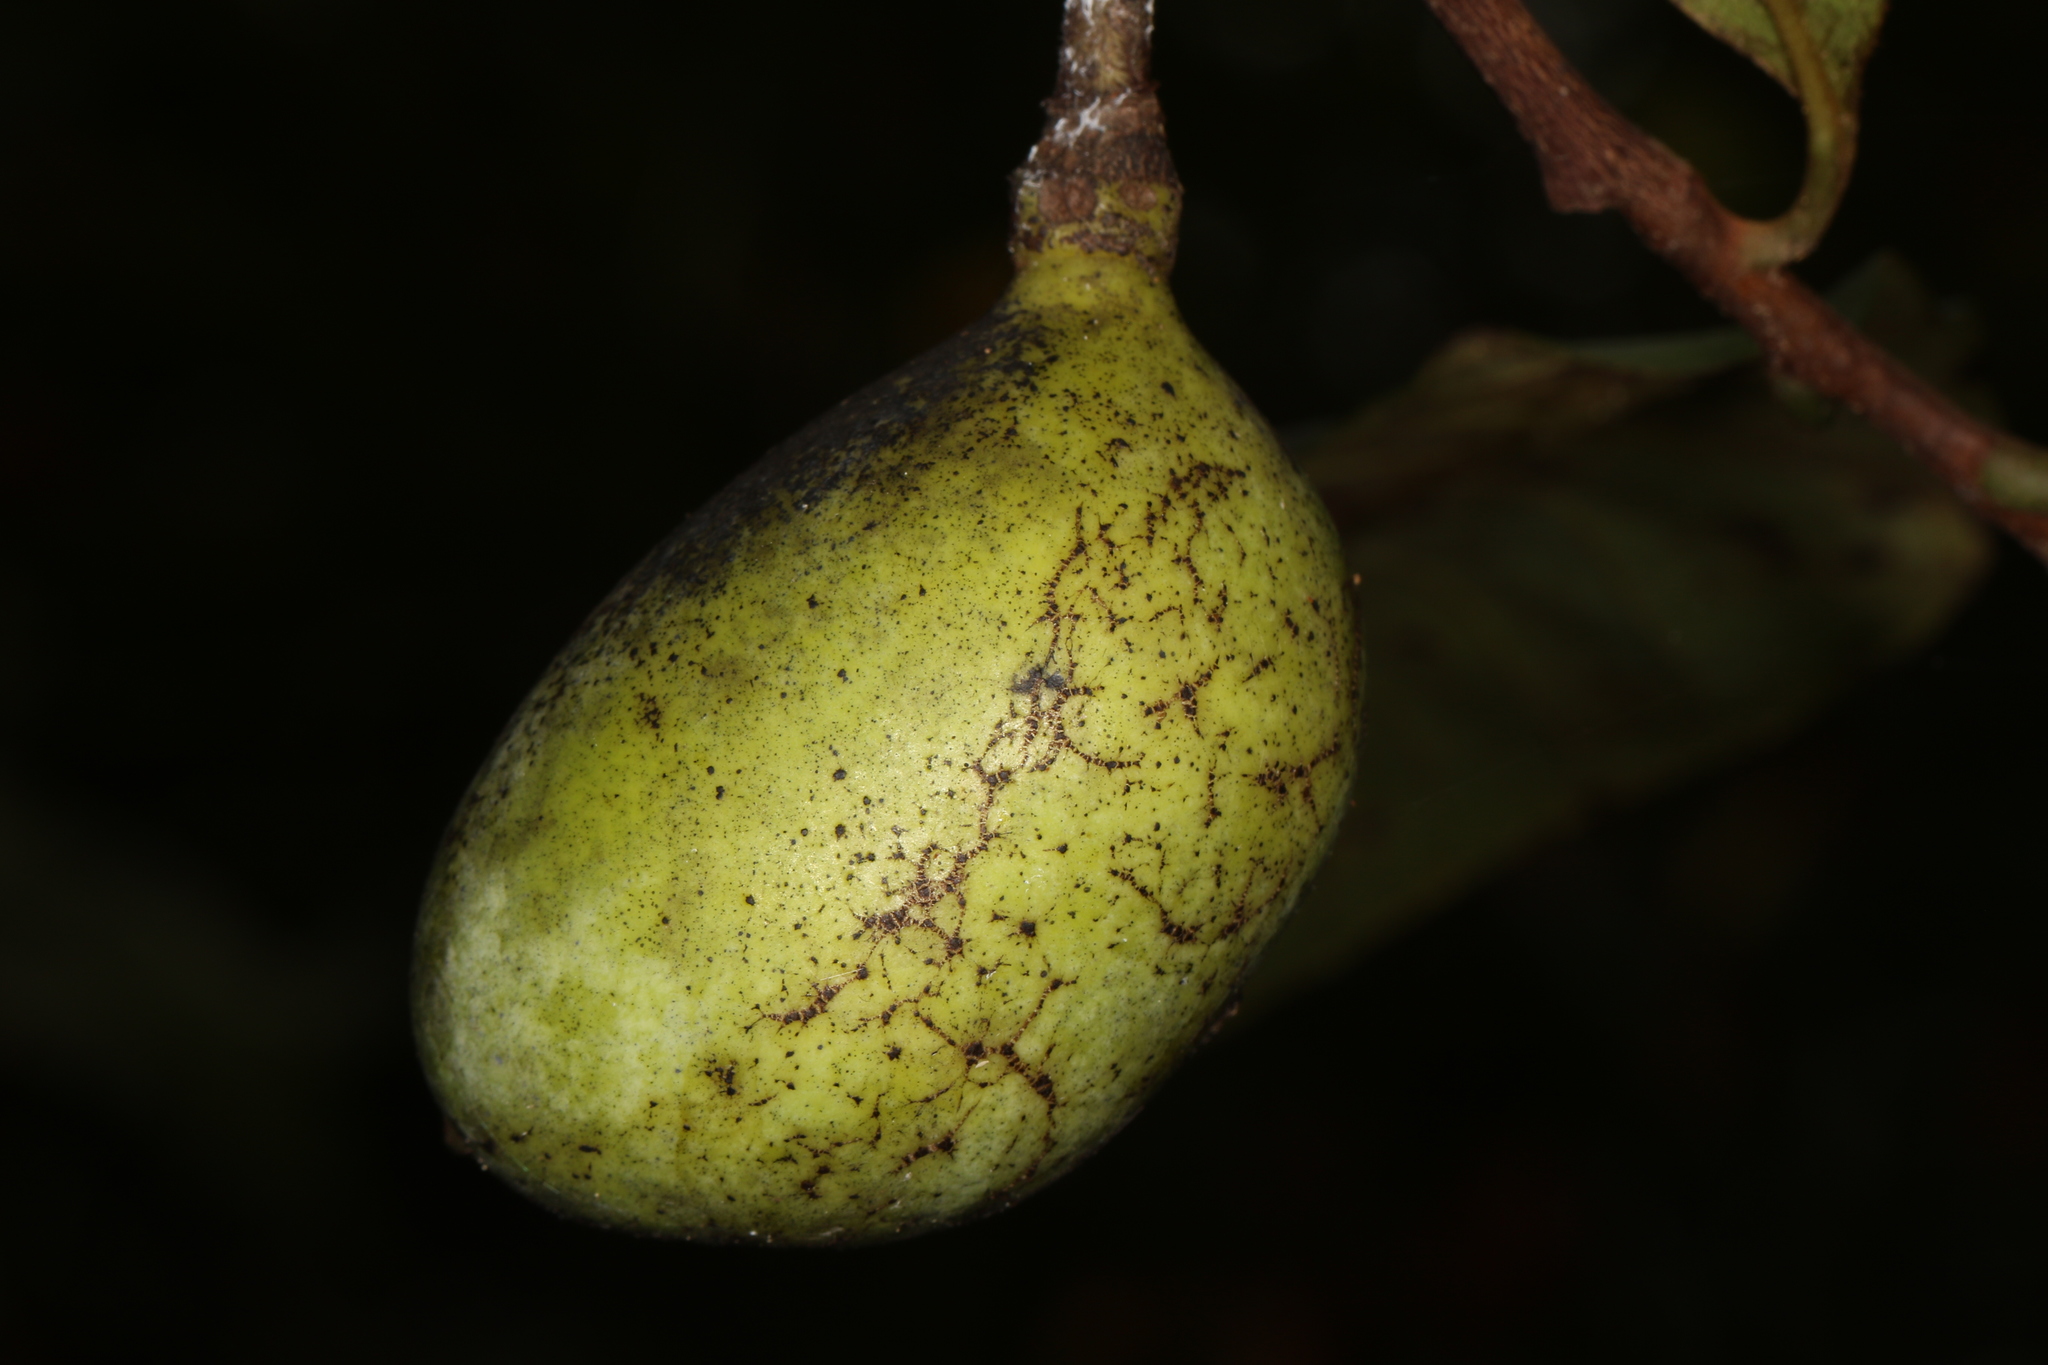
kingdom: Plantae
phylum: Tracheophyta
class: Magnoliopsida
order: Magnoliales
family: Annonaceae
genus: Asimina
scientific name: Asimina triloba
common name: Dog-banana
